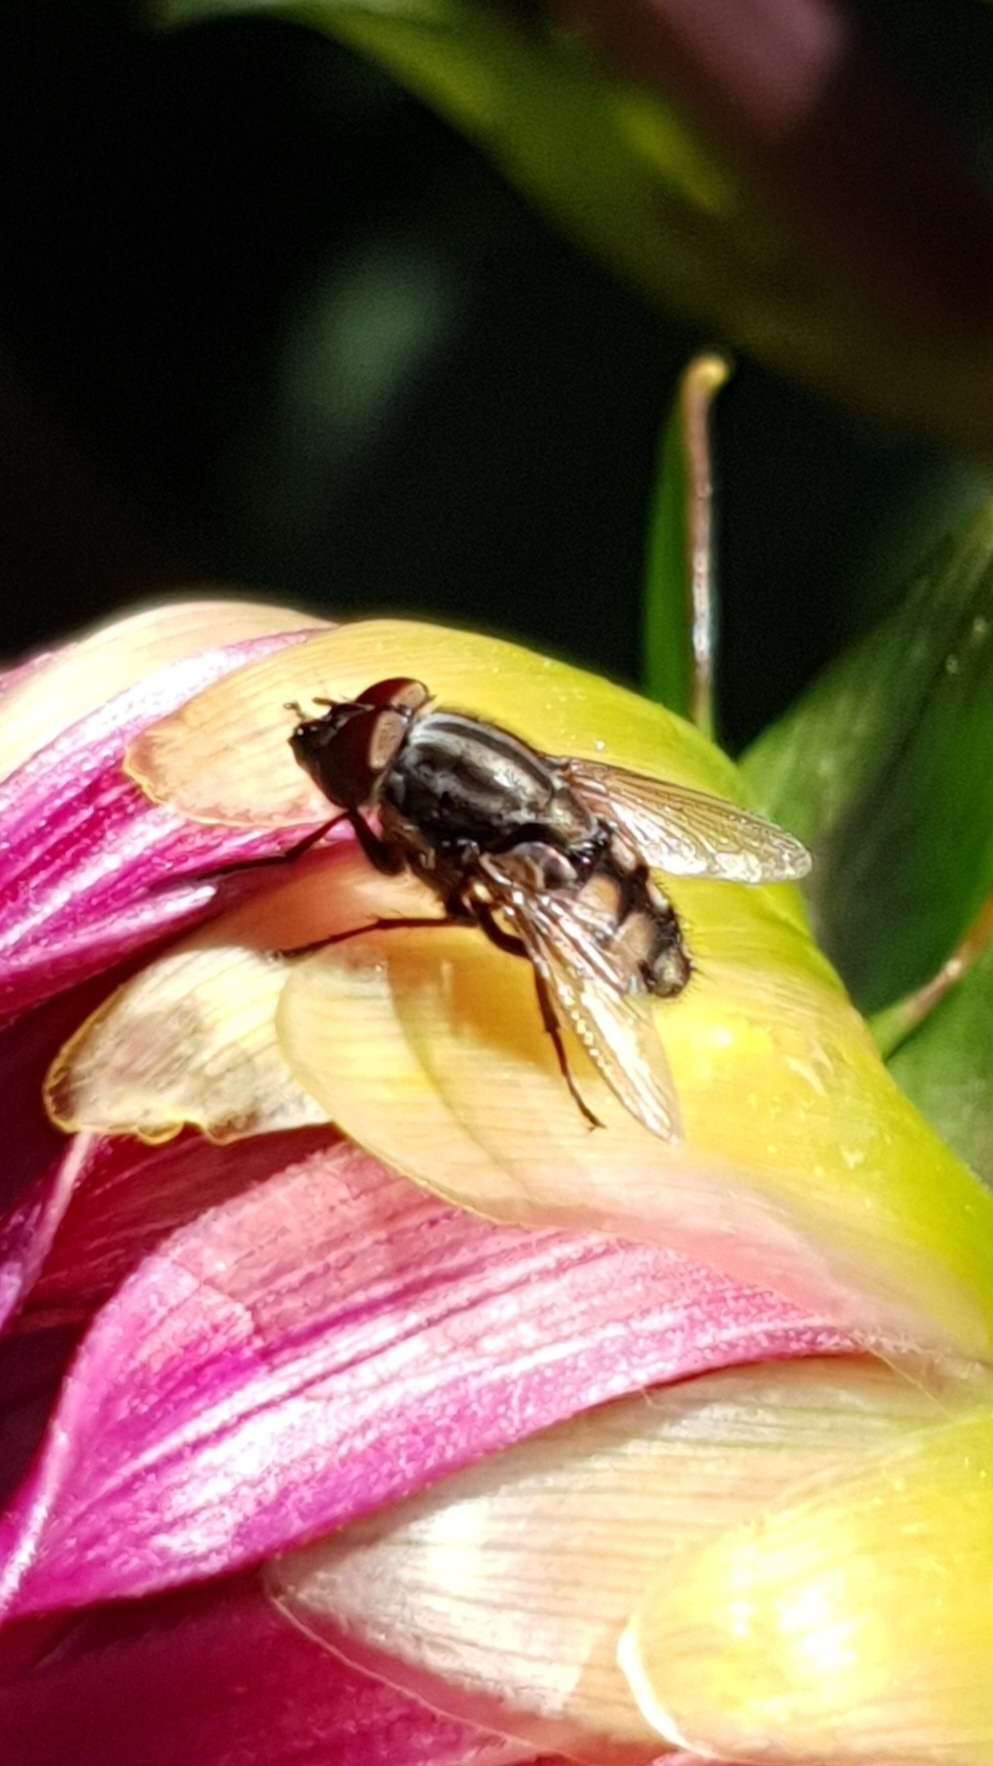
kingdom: Animalia
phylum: Arthropoda
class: Insecta
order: Diptera
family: Calliphoridae
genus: Stomorhina
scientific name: Stomorhina lunata
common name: Locust blowfly
